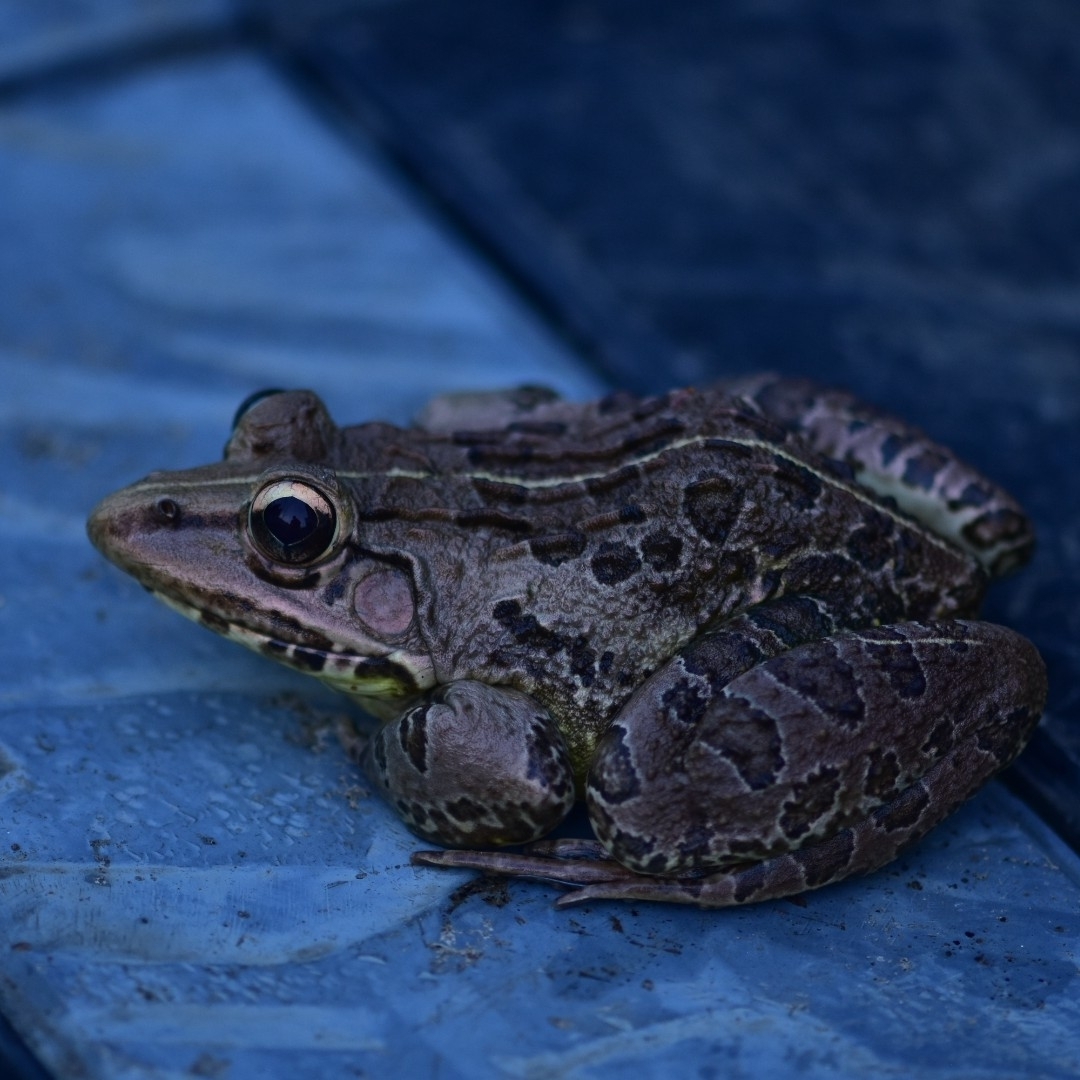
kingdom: Animalia
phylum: Chordata
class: Amphibia
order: Anura
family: Dicroglossidae
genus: Hoplobatrachus
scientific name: Hoplobatrachus tigerinus
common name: Indian bullfrog
